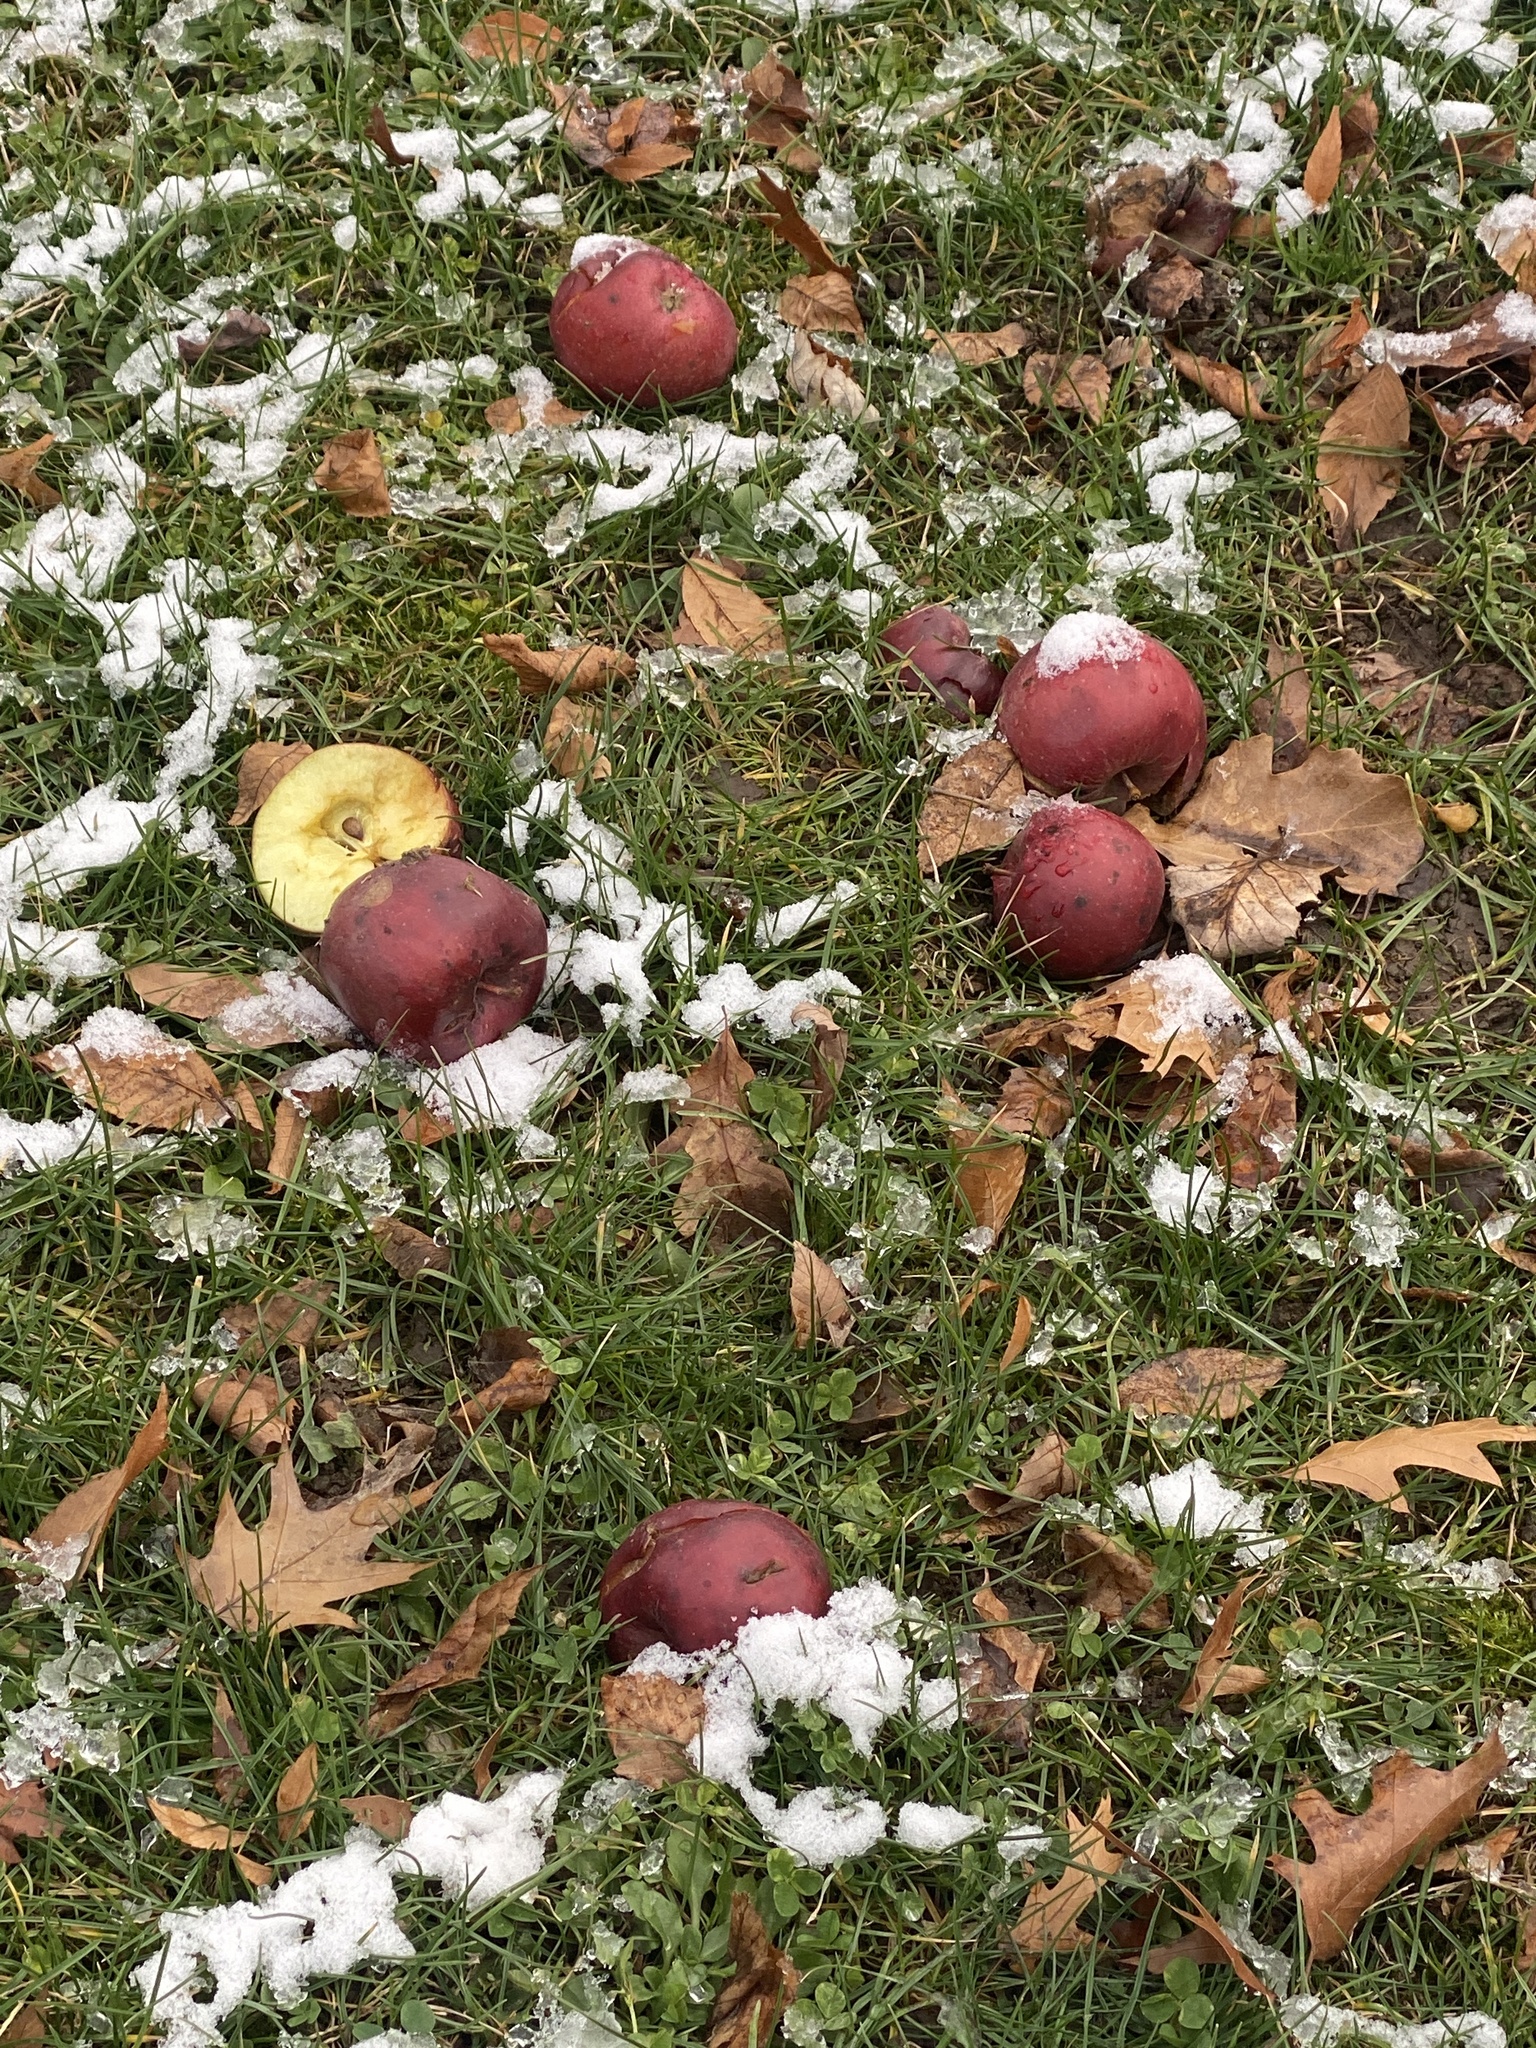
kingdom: Plantae
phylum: Tracheophyta
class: Magnoliopsida
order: Rosales
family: Rosaceae
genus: Malus
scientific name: Malus domestica
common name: Apple
